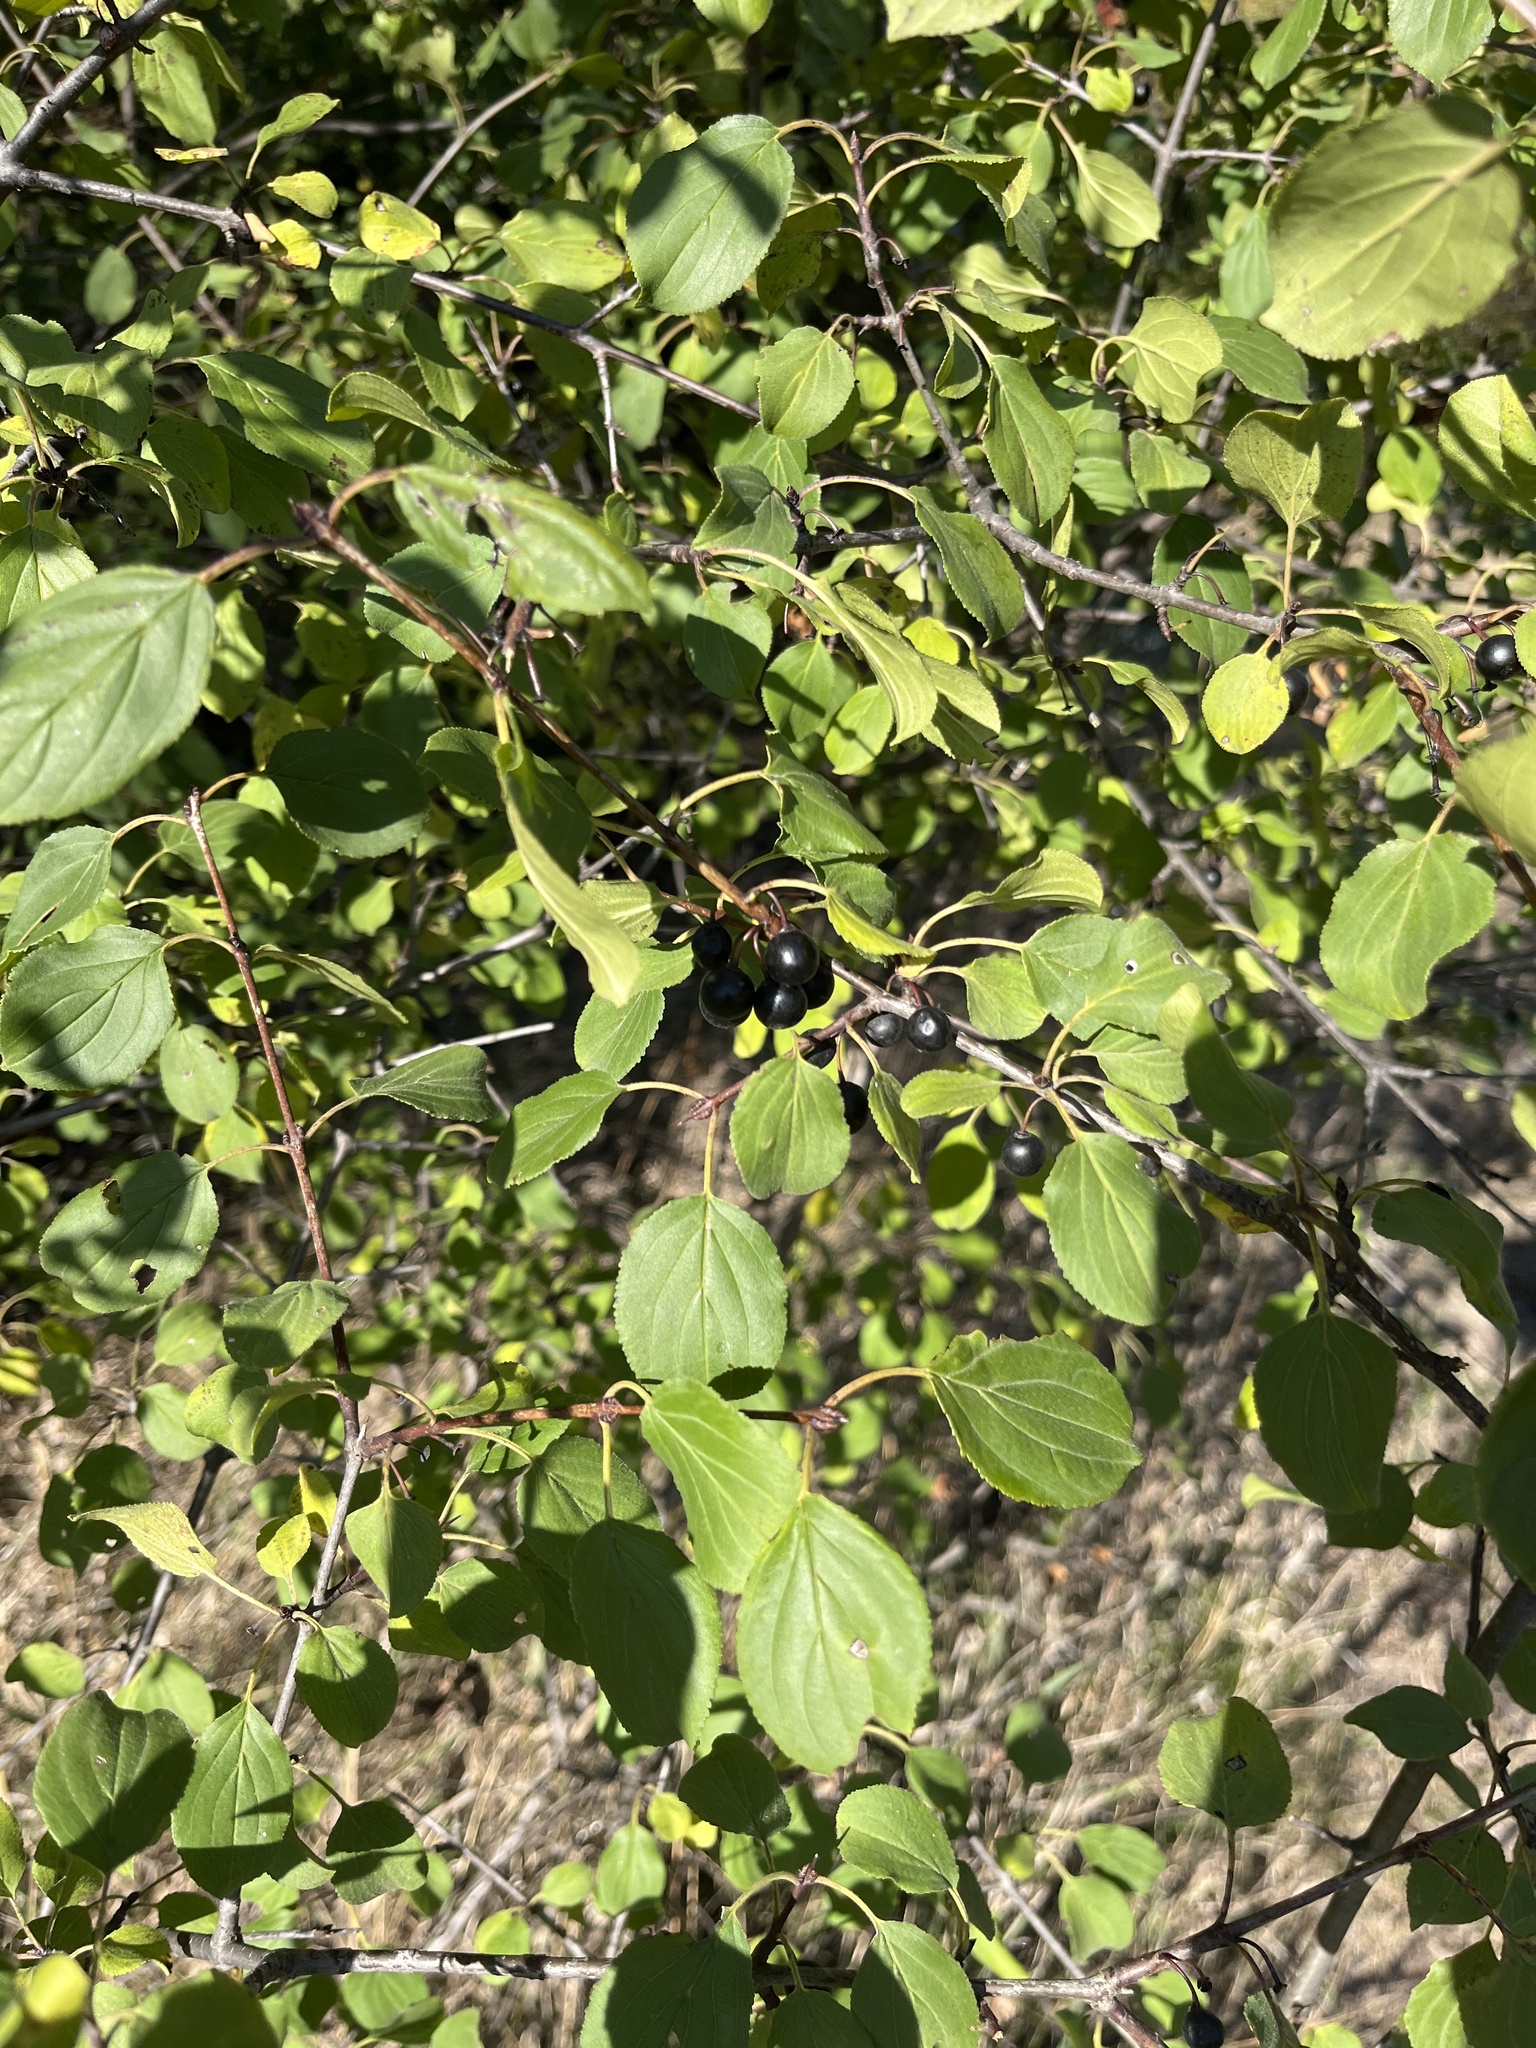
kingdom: Plantae
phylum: Tracheophyta
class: Magnoliopsida
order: Rosales
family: Rhamnaceae
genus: Rhamnus
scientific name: Rhamnus cathartica
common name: Common buckthorn
